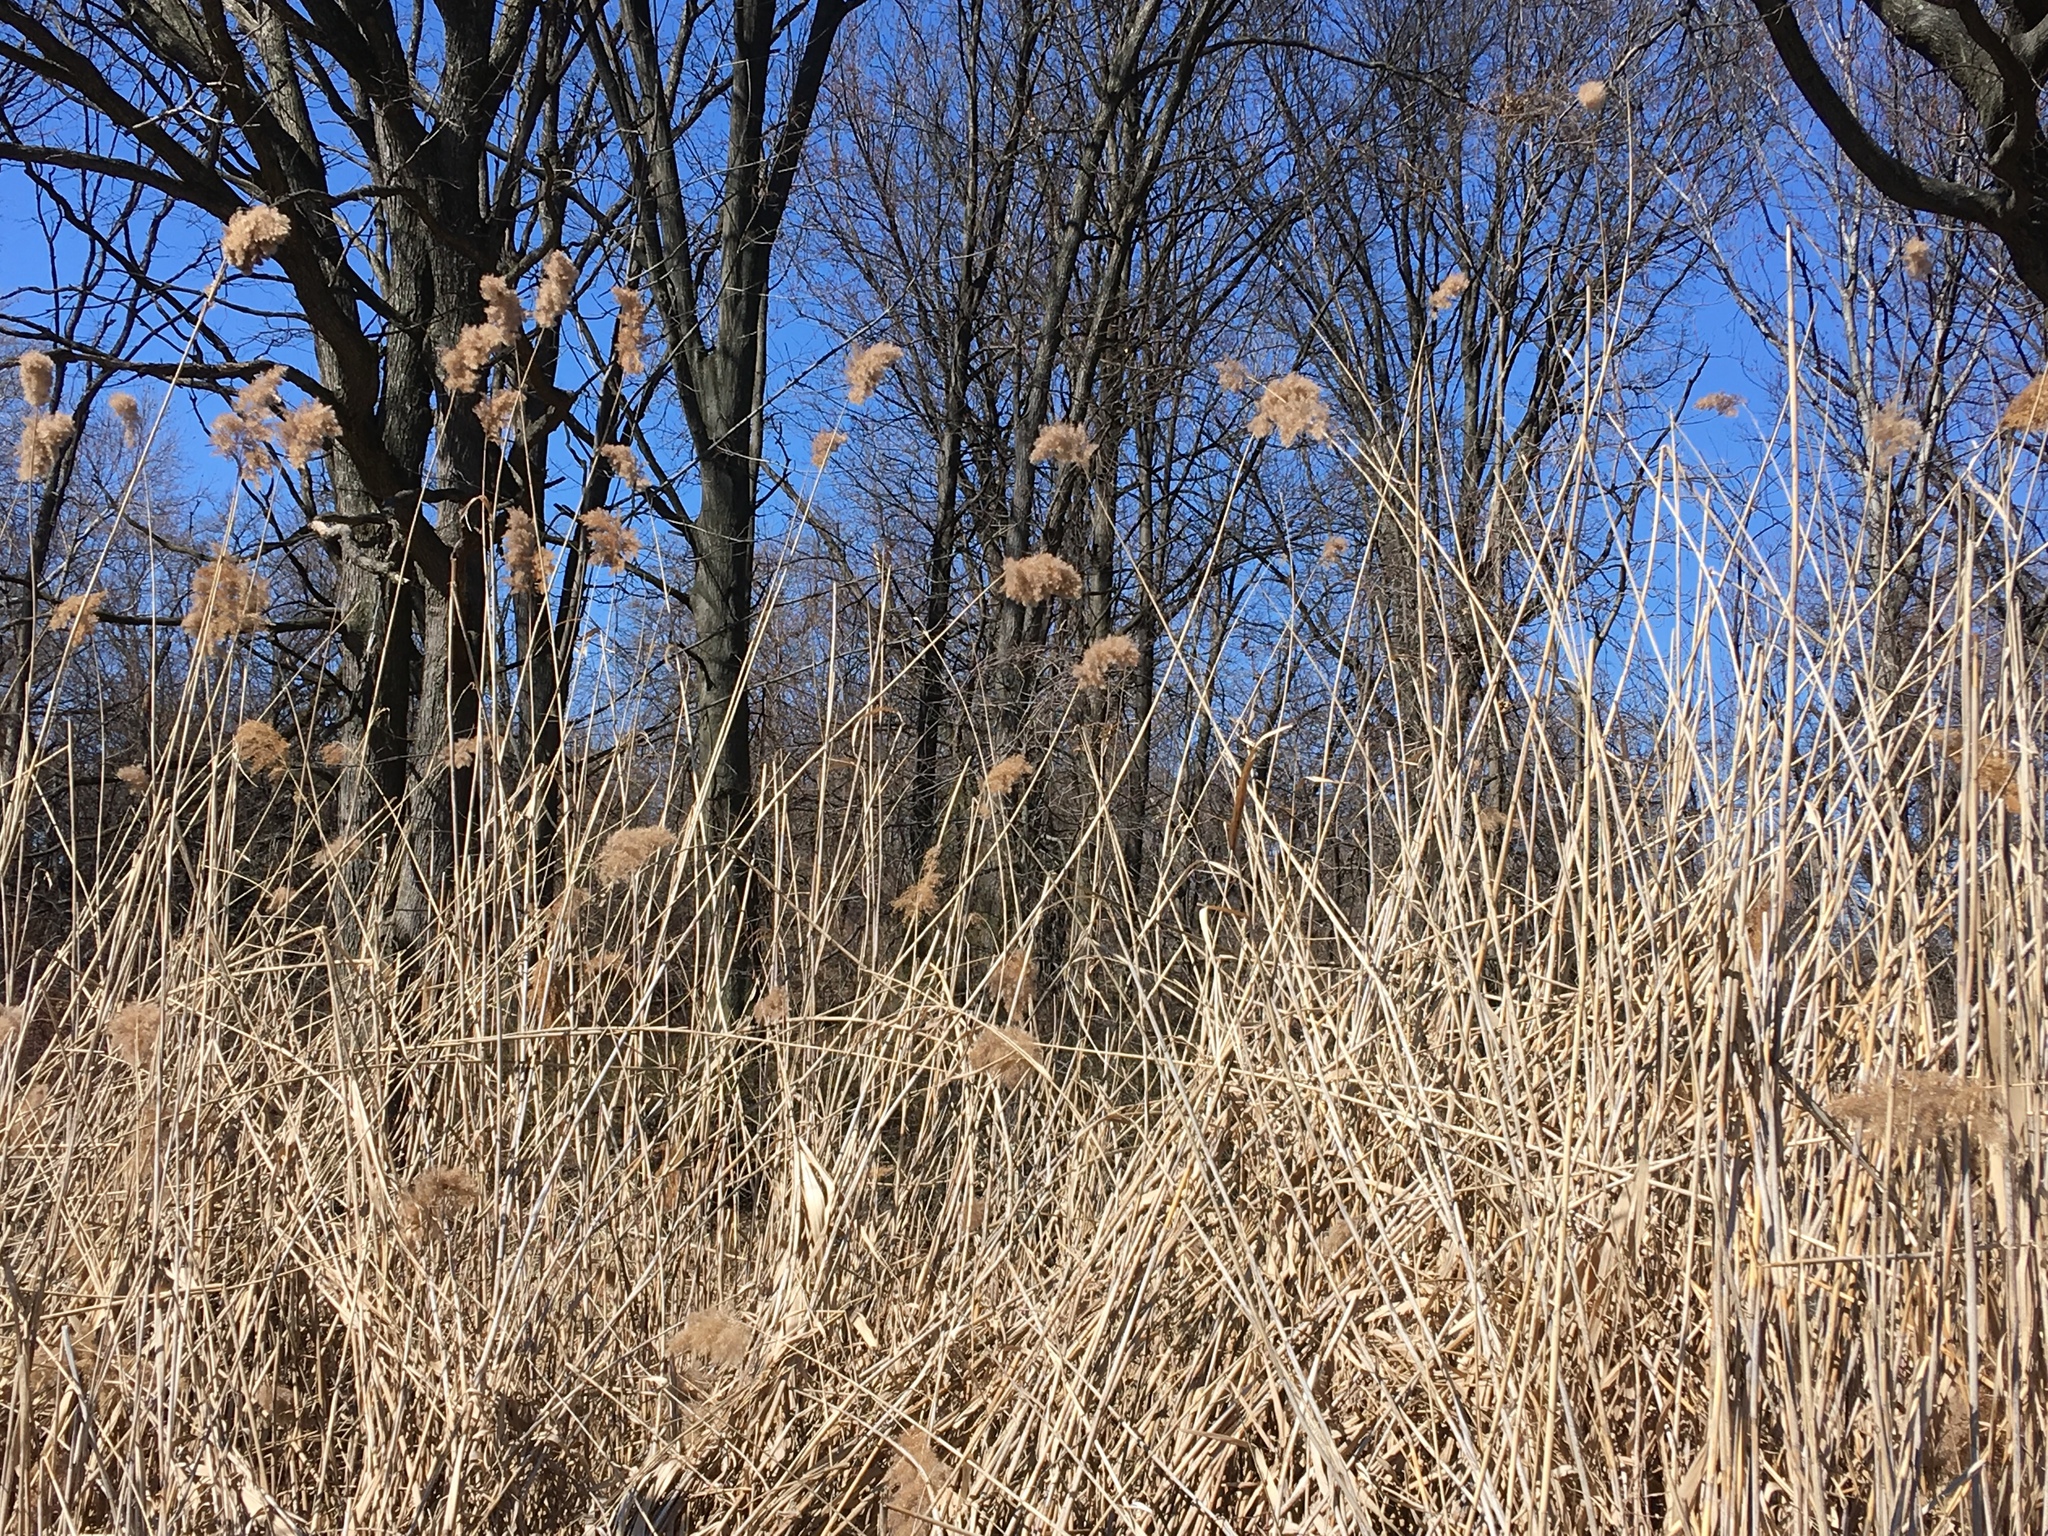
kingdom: Plantae
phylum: Tracheophyta
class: Liliopsida
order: Poales
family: Poaceae
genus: Phragmites
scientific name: Phragmites australis
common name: Common reed
